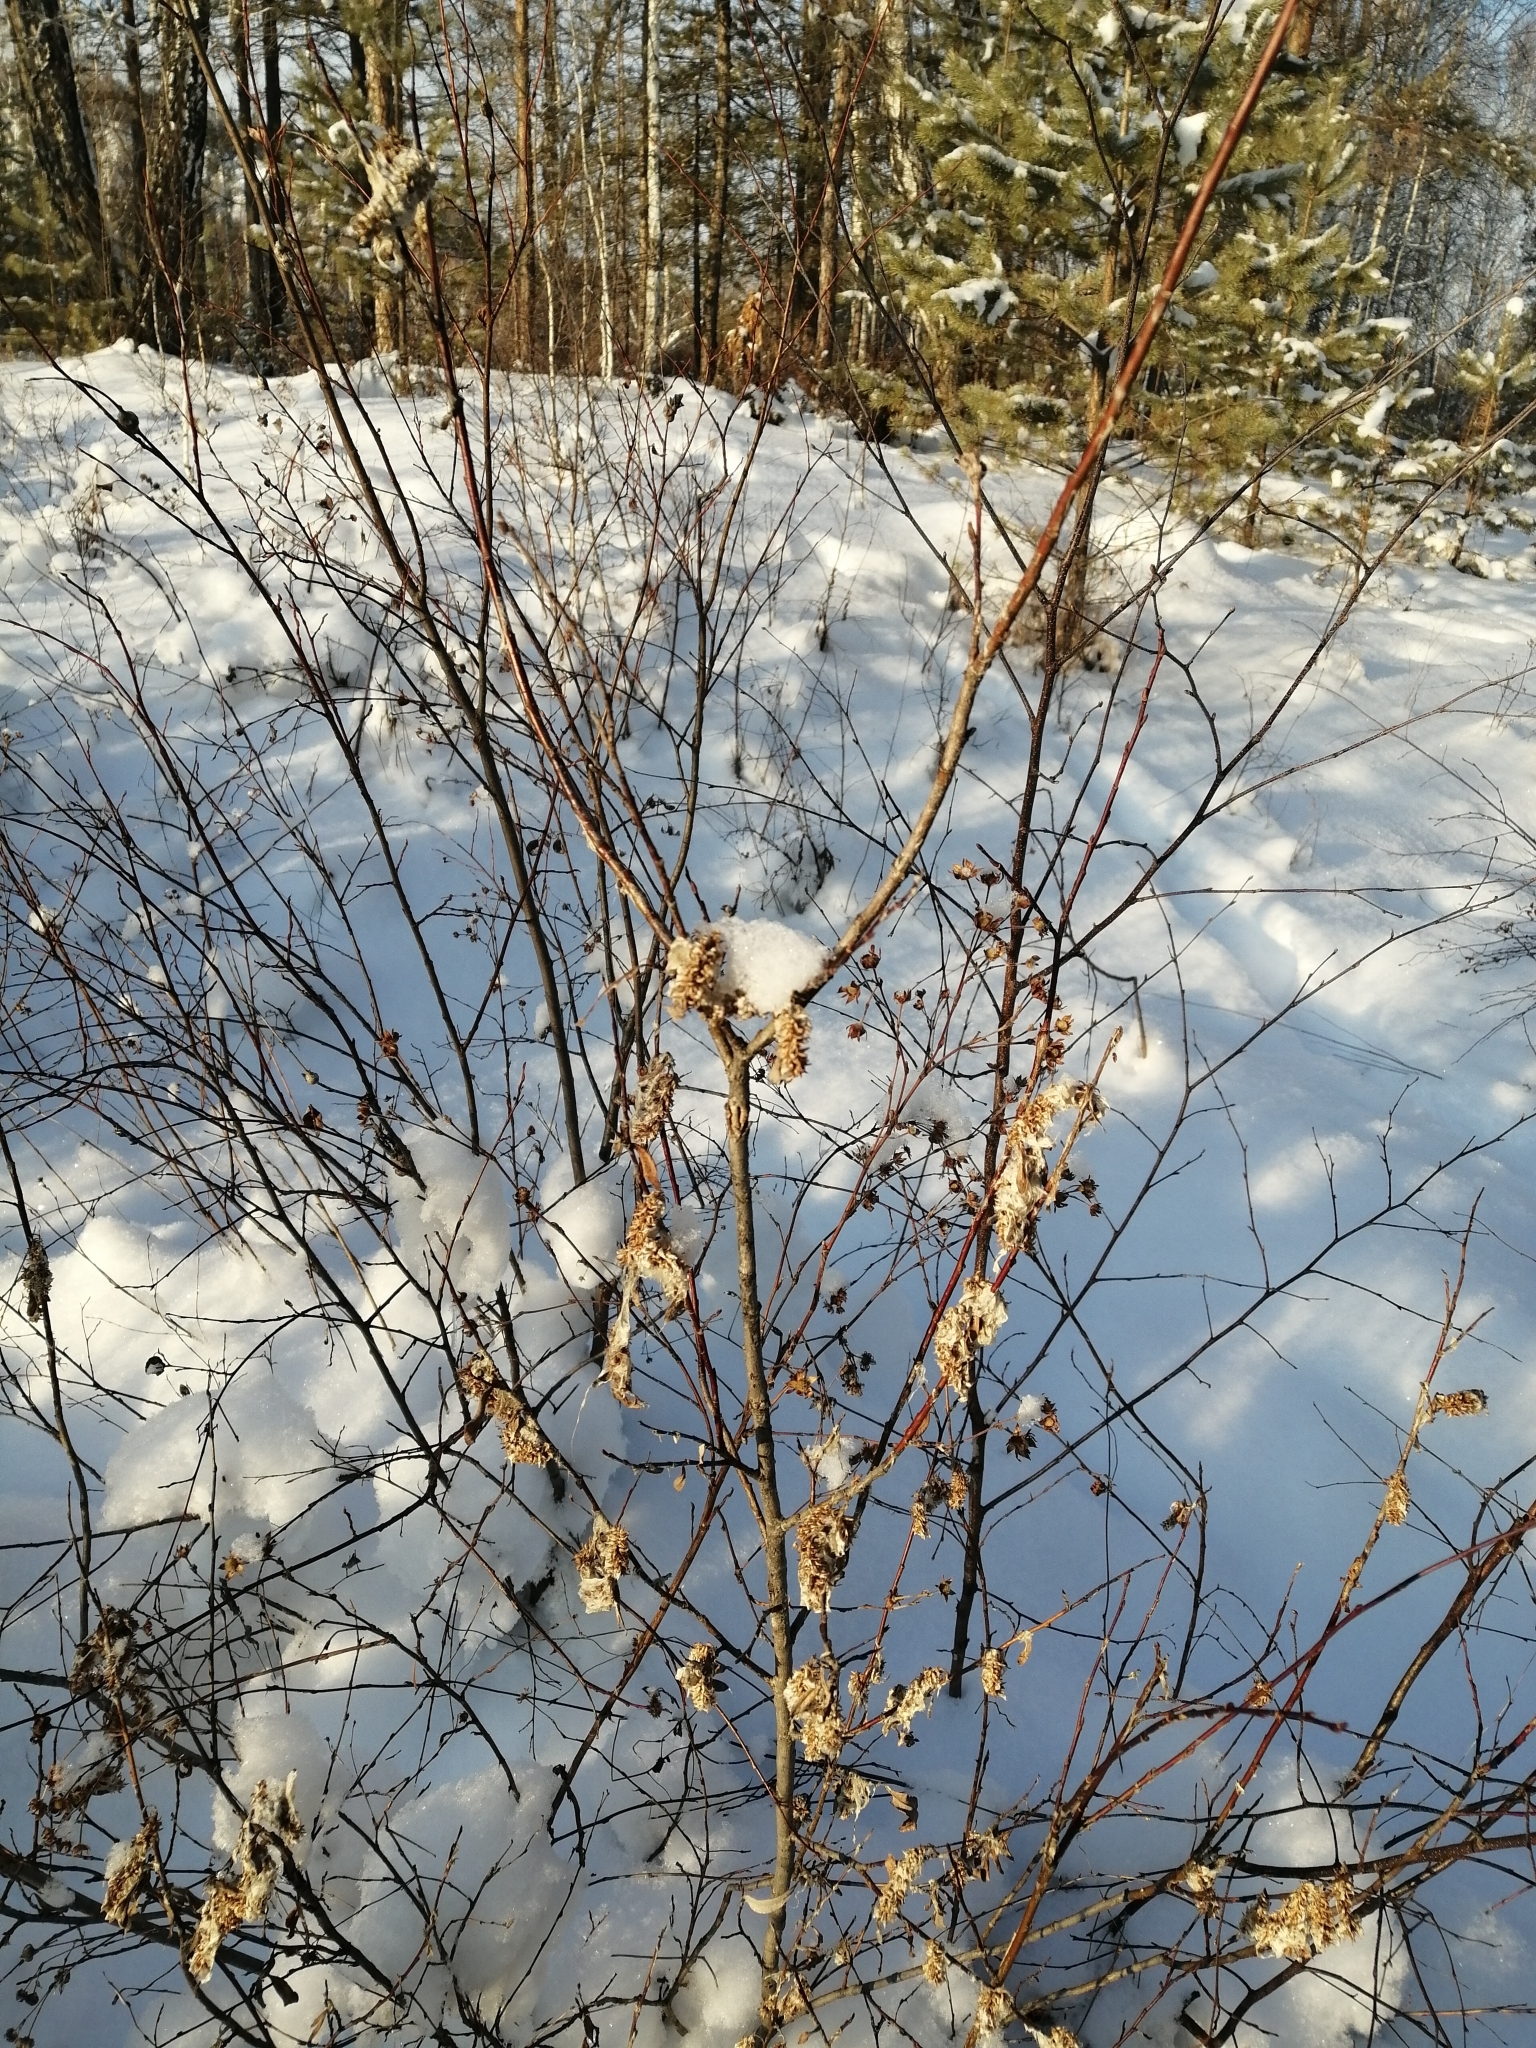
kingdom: Plantae
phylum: Tracheophyta
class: Magnoliopsida
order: Malpighiales
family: Salicaceae
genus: Salix
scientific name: Salix pentandra
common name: Bay willow
